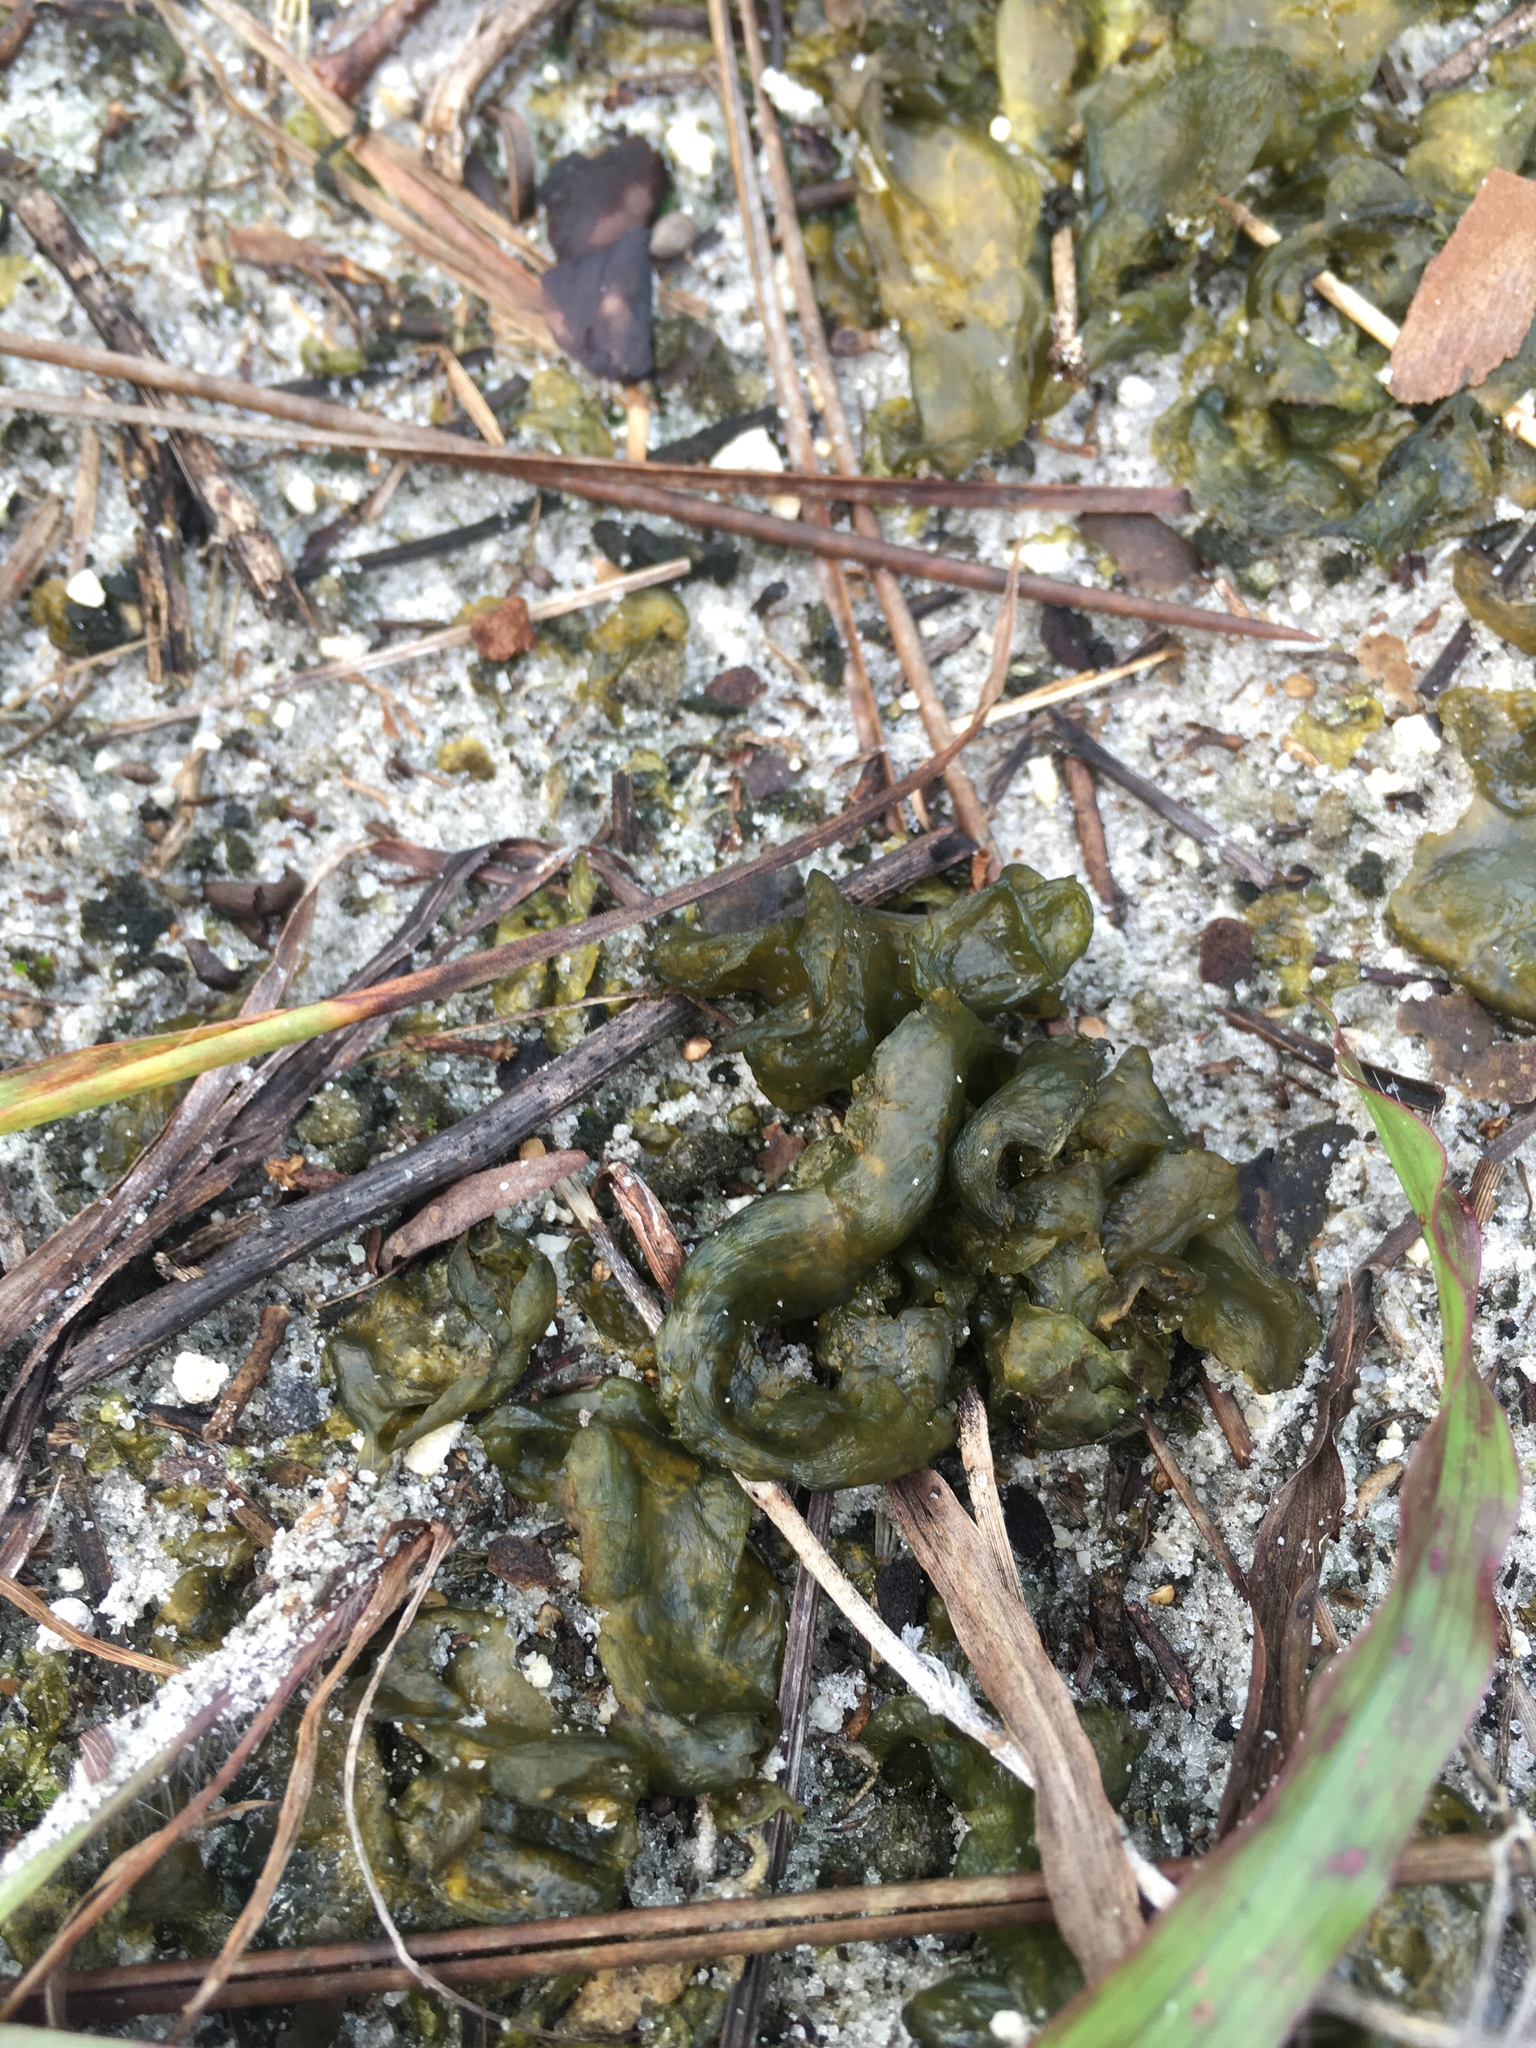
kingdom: Bacteria
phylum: Cyanobacteria
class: Cyanobacteriia
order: Cyanobacteriales
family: Nostocaceae
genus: Nostoc
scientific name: Nostoc commune
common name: Star jelly
